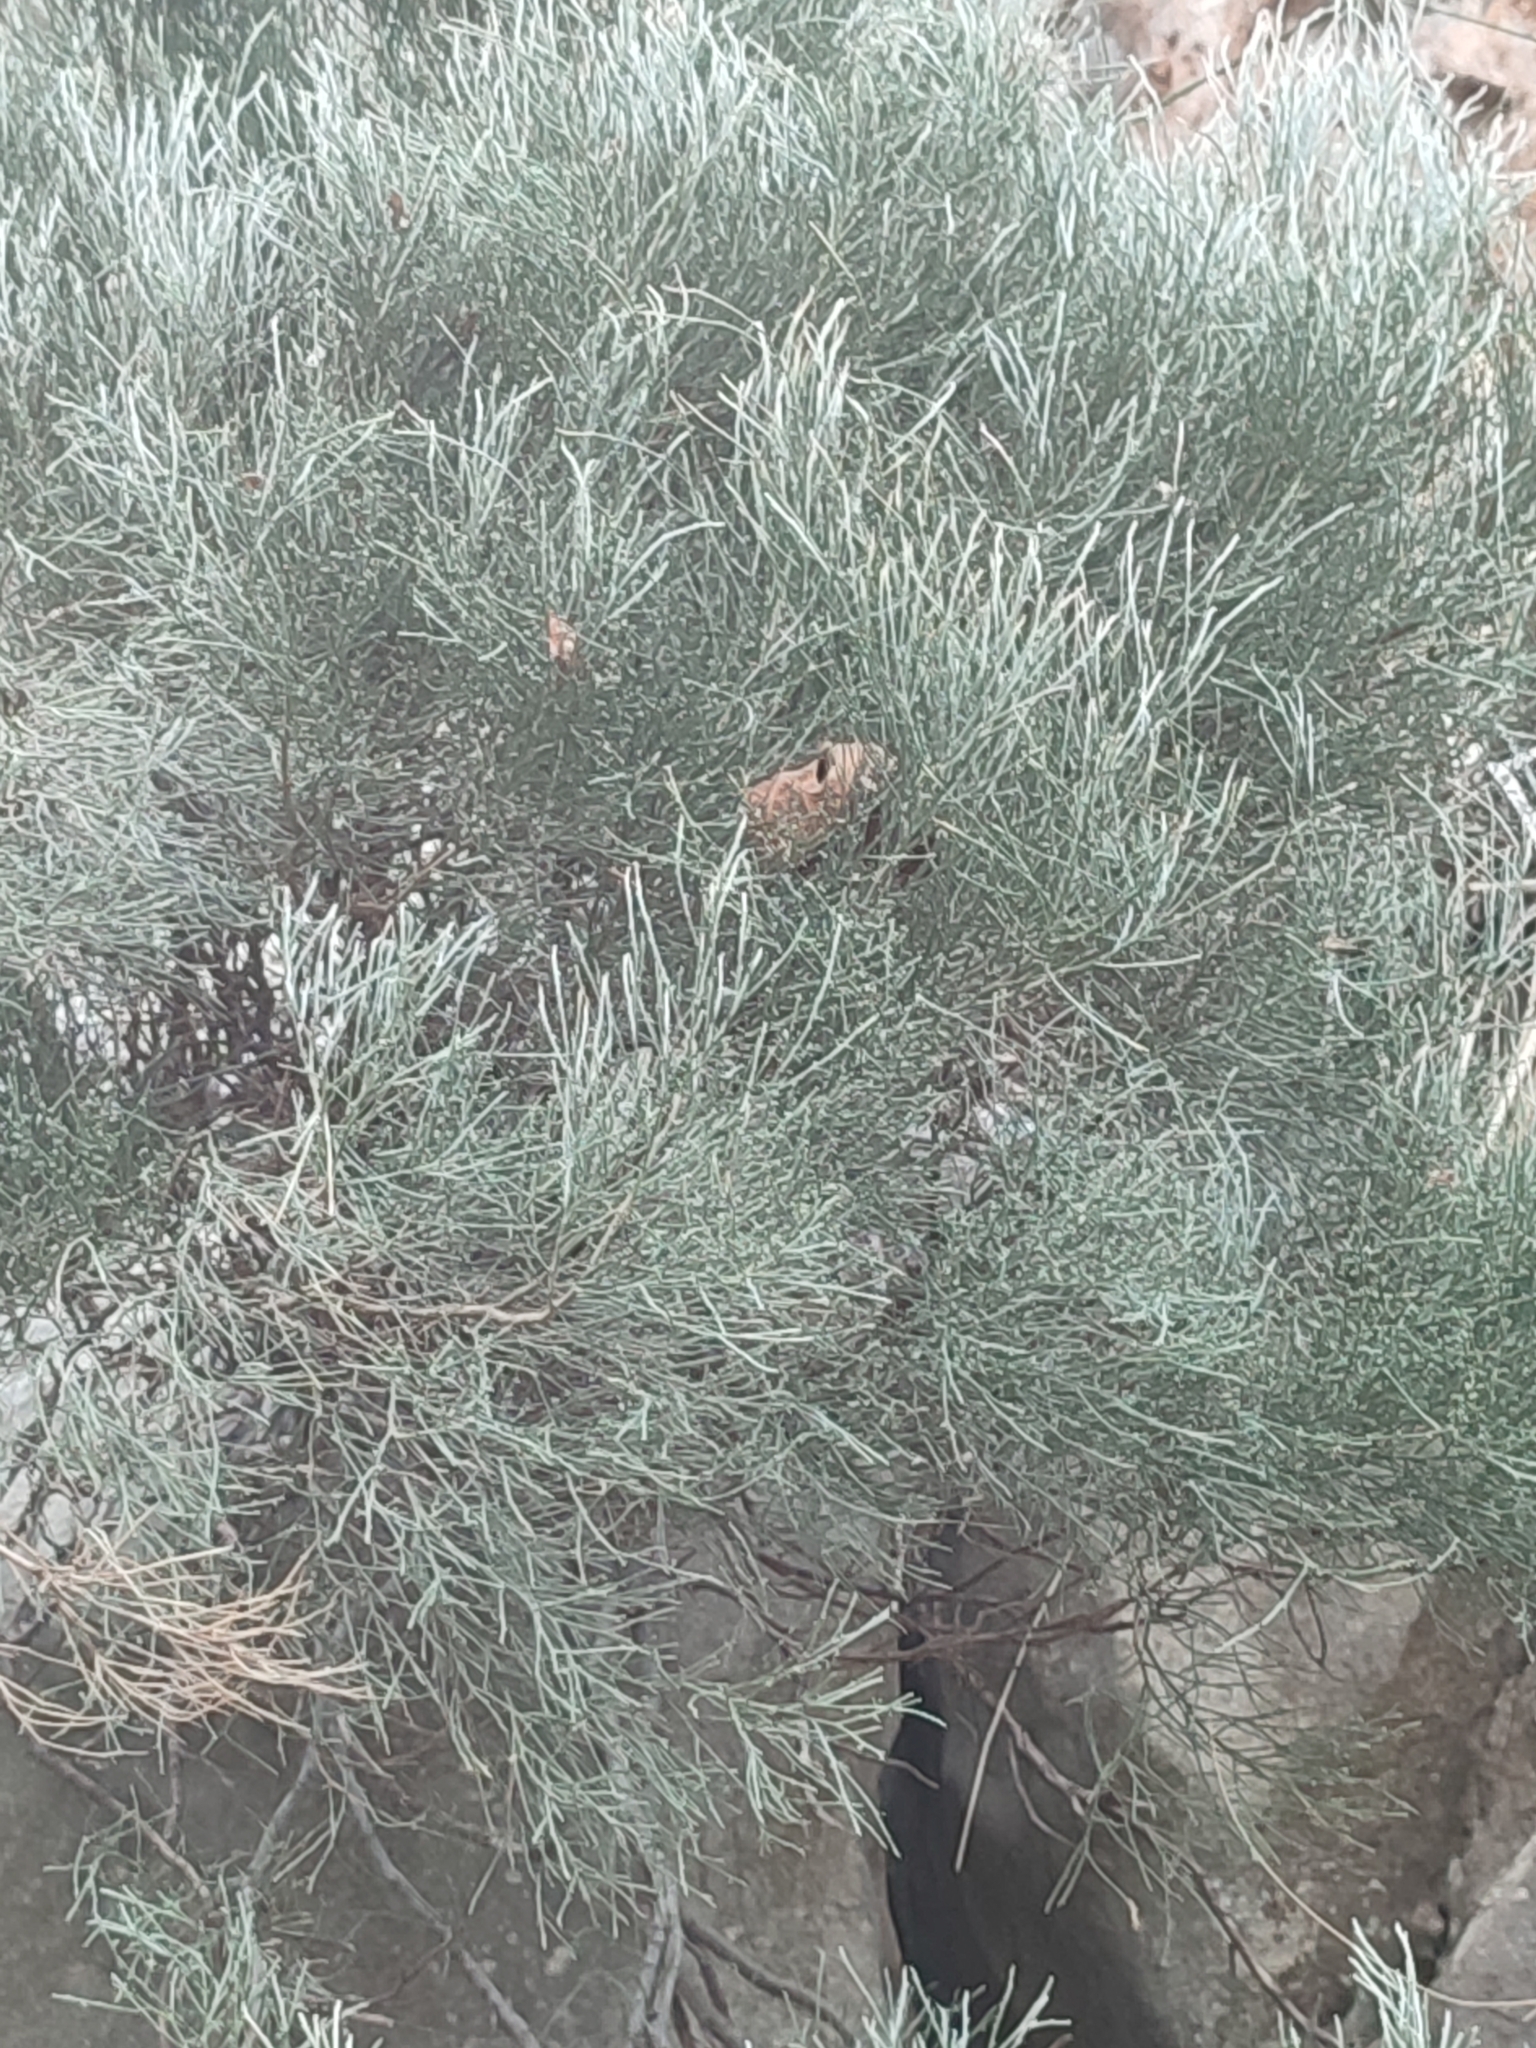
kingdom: Plantae
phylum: Tracheophyta
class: Magnoliopsida
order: Fabales
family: Fabaceae
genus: Genista
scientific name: Genista majorica
